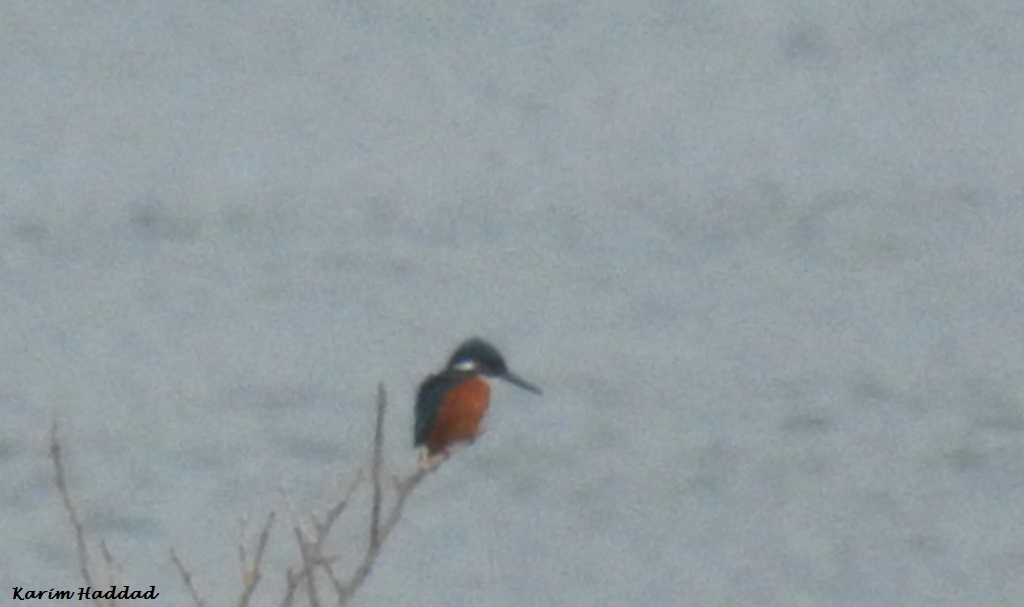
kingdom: Animalia
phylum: Chordata
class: Aves
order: Coraciiformes
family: Alcedinidae
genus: Alcedo
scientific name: Alcedo atthis
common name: Common kingfisher
